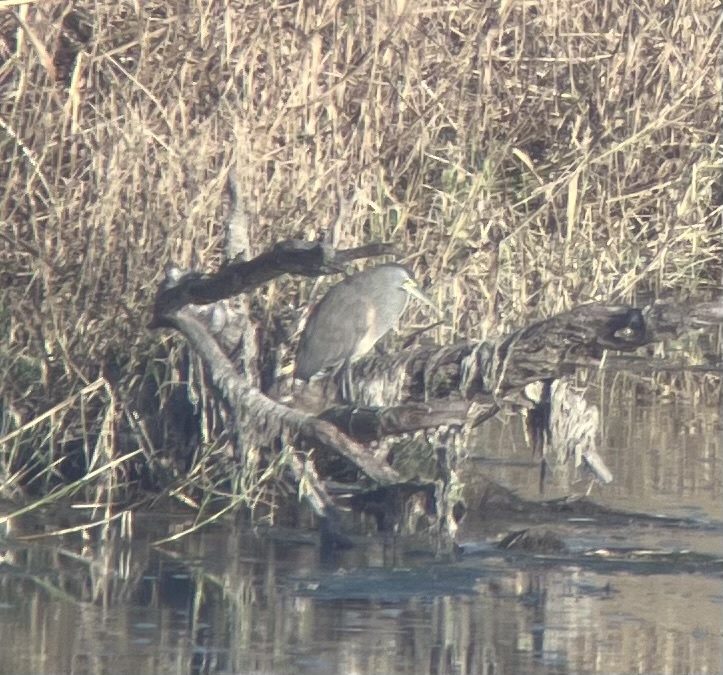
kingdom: Animalia
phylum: Chordata
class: Aves
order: Pelecaniformes
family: Ardeidae
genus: Tigrisoma
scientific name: Tigrisoma mexicanum
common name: Bare-throated tiger-heron
